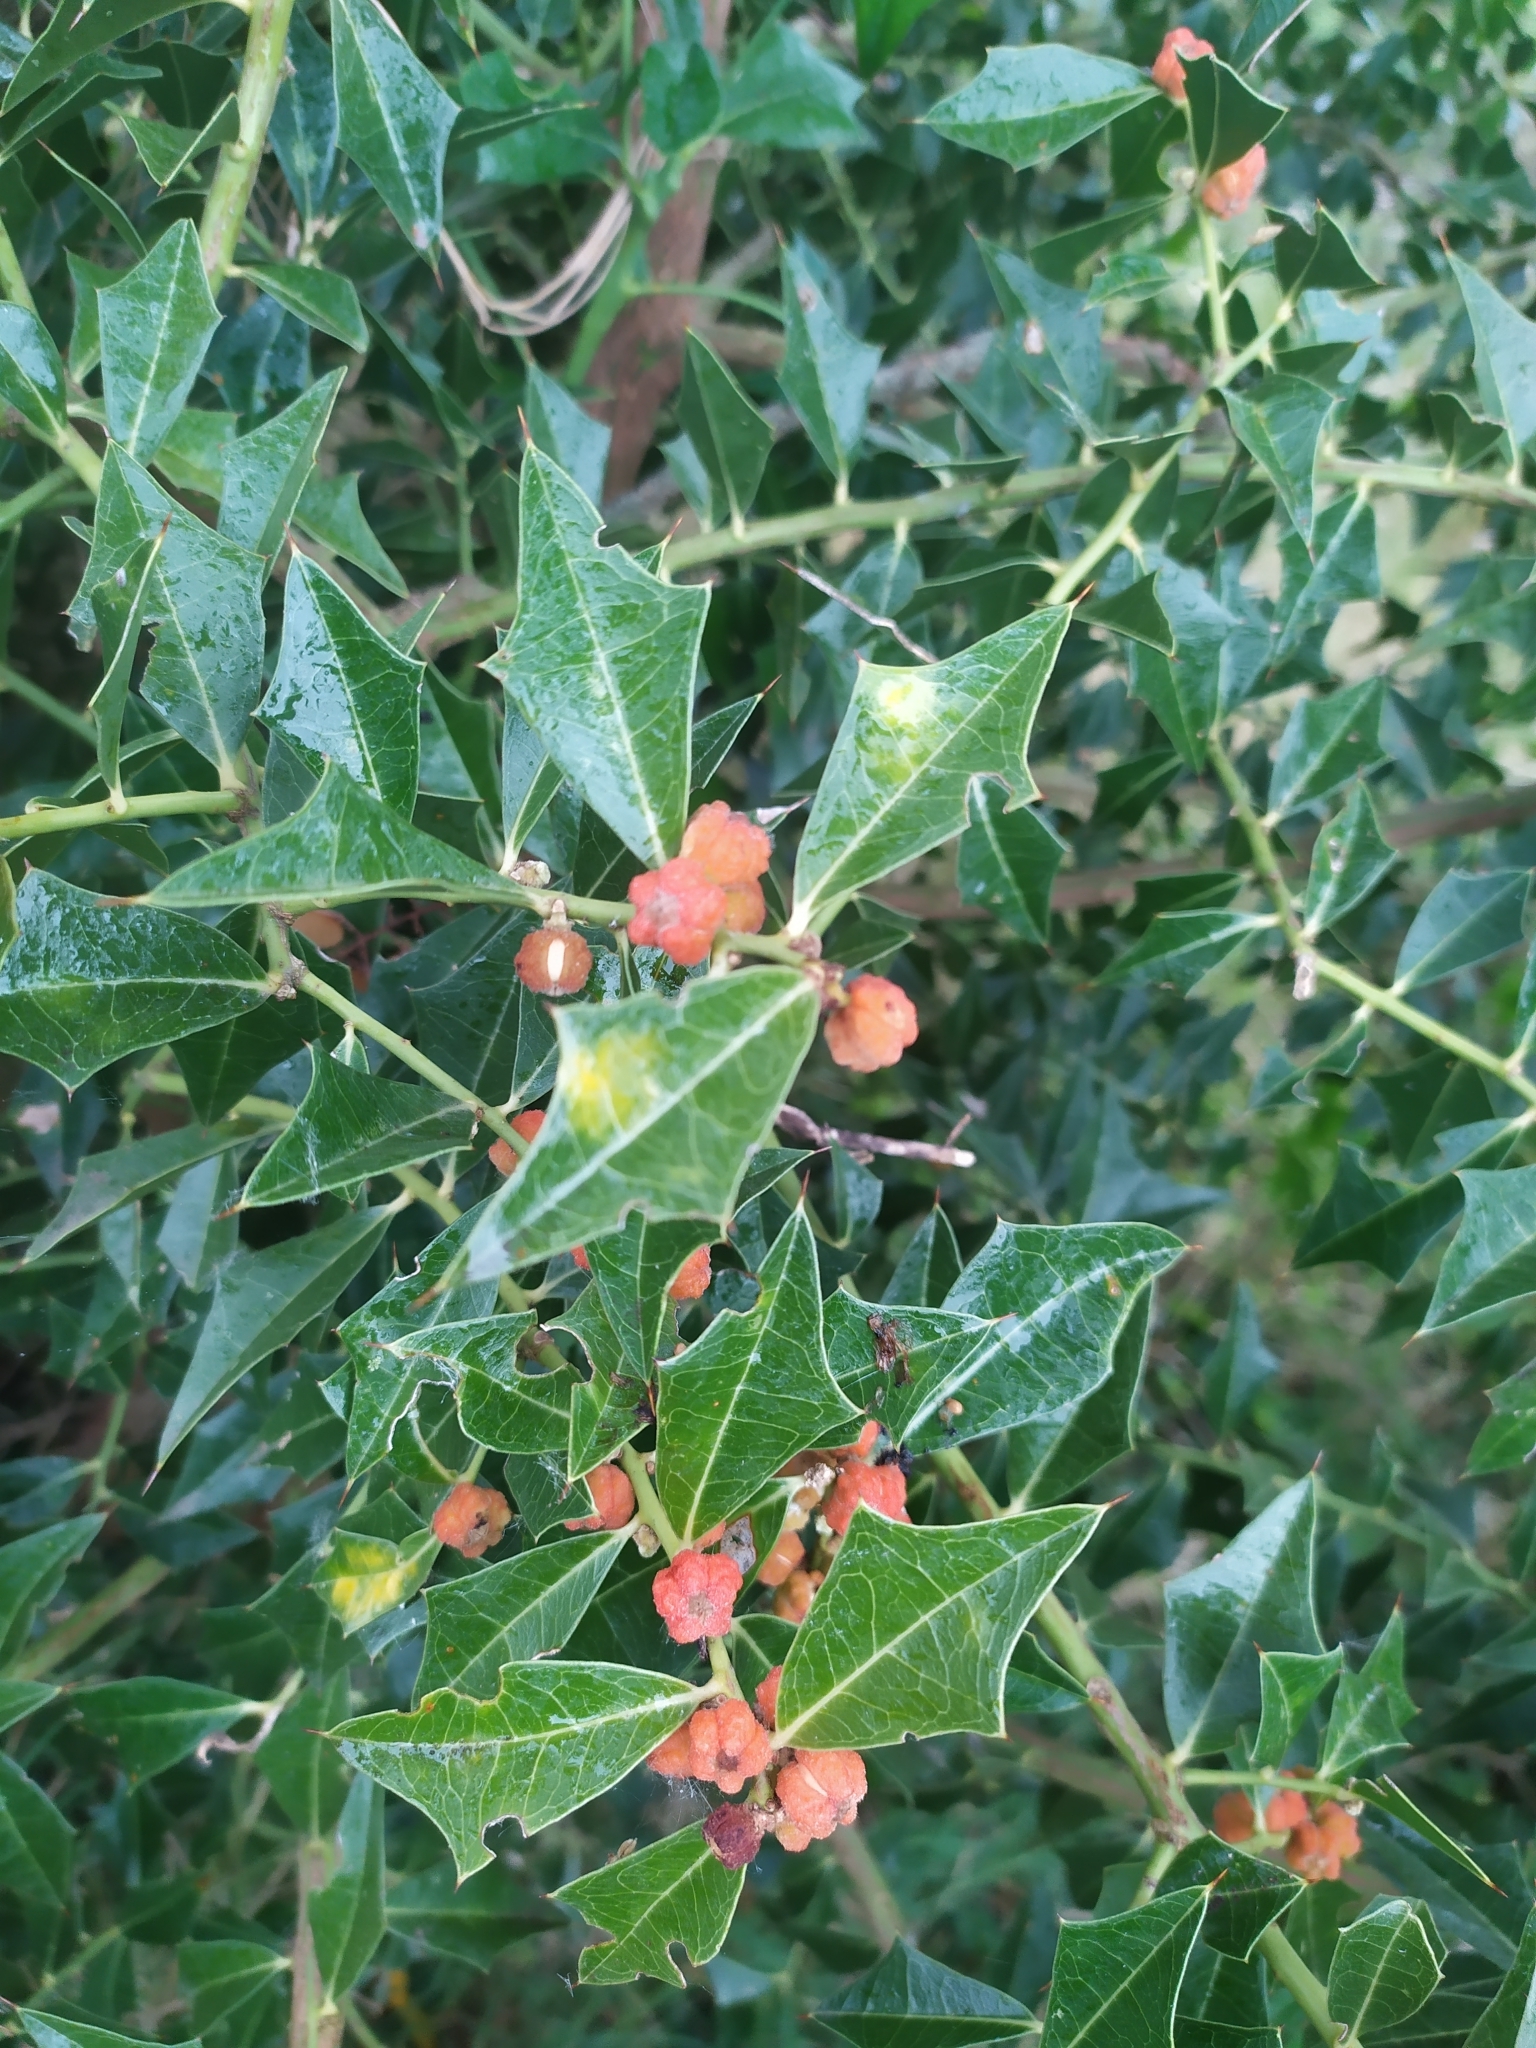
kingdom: Plantae
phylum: Tracheophyta
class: Magnoliopsida
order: Santalales
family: Cervantesiaceae
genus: Jodina
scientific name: Jodina rhombifolia
